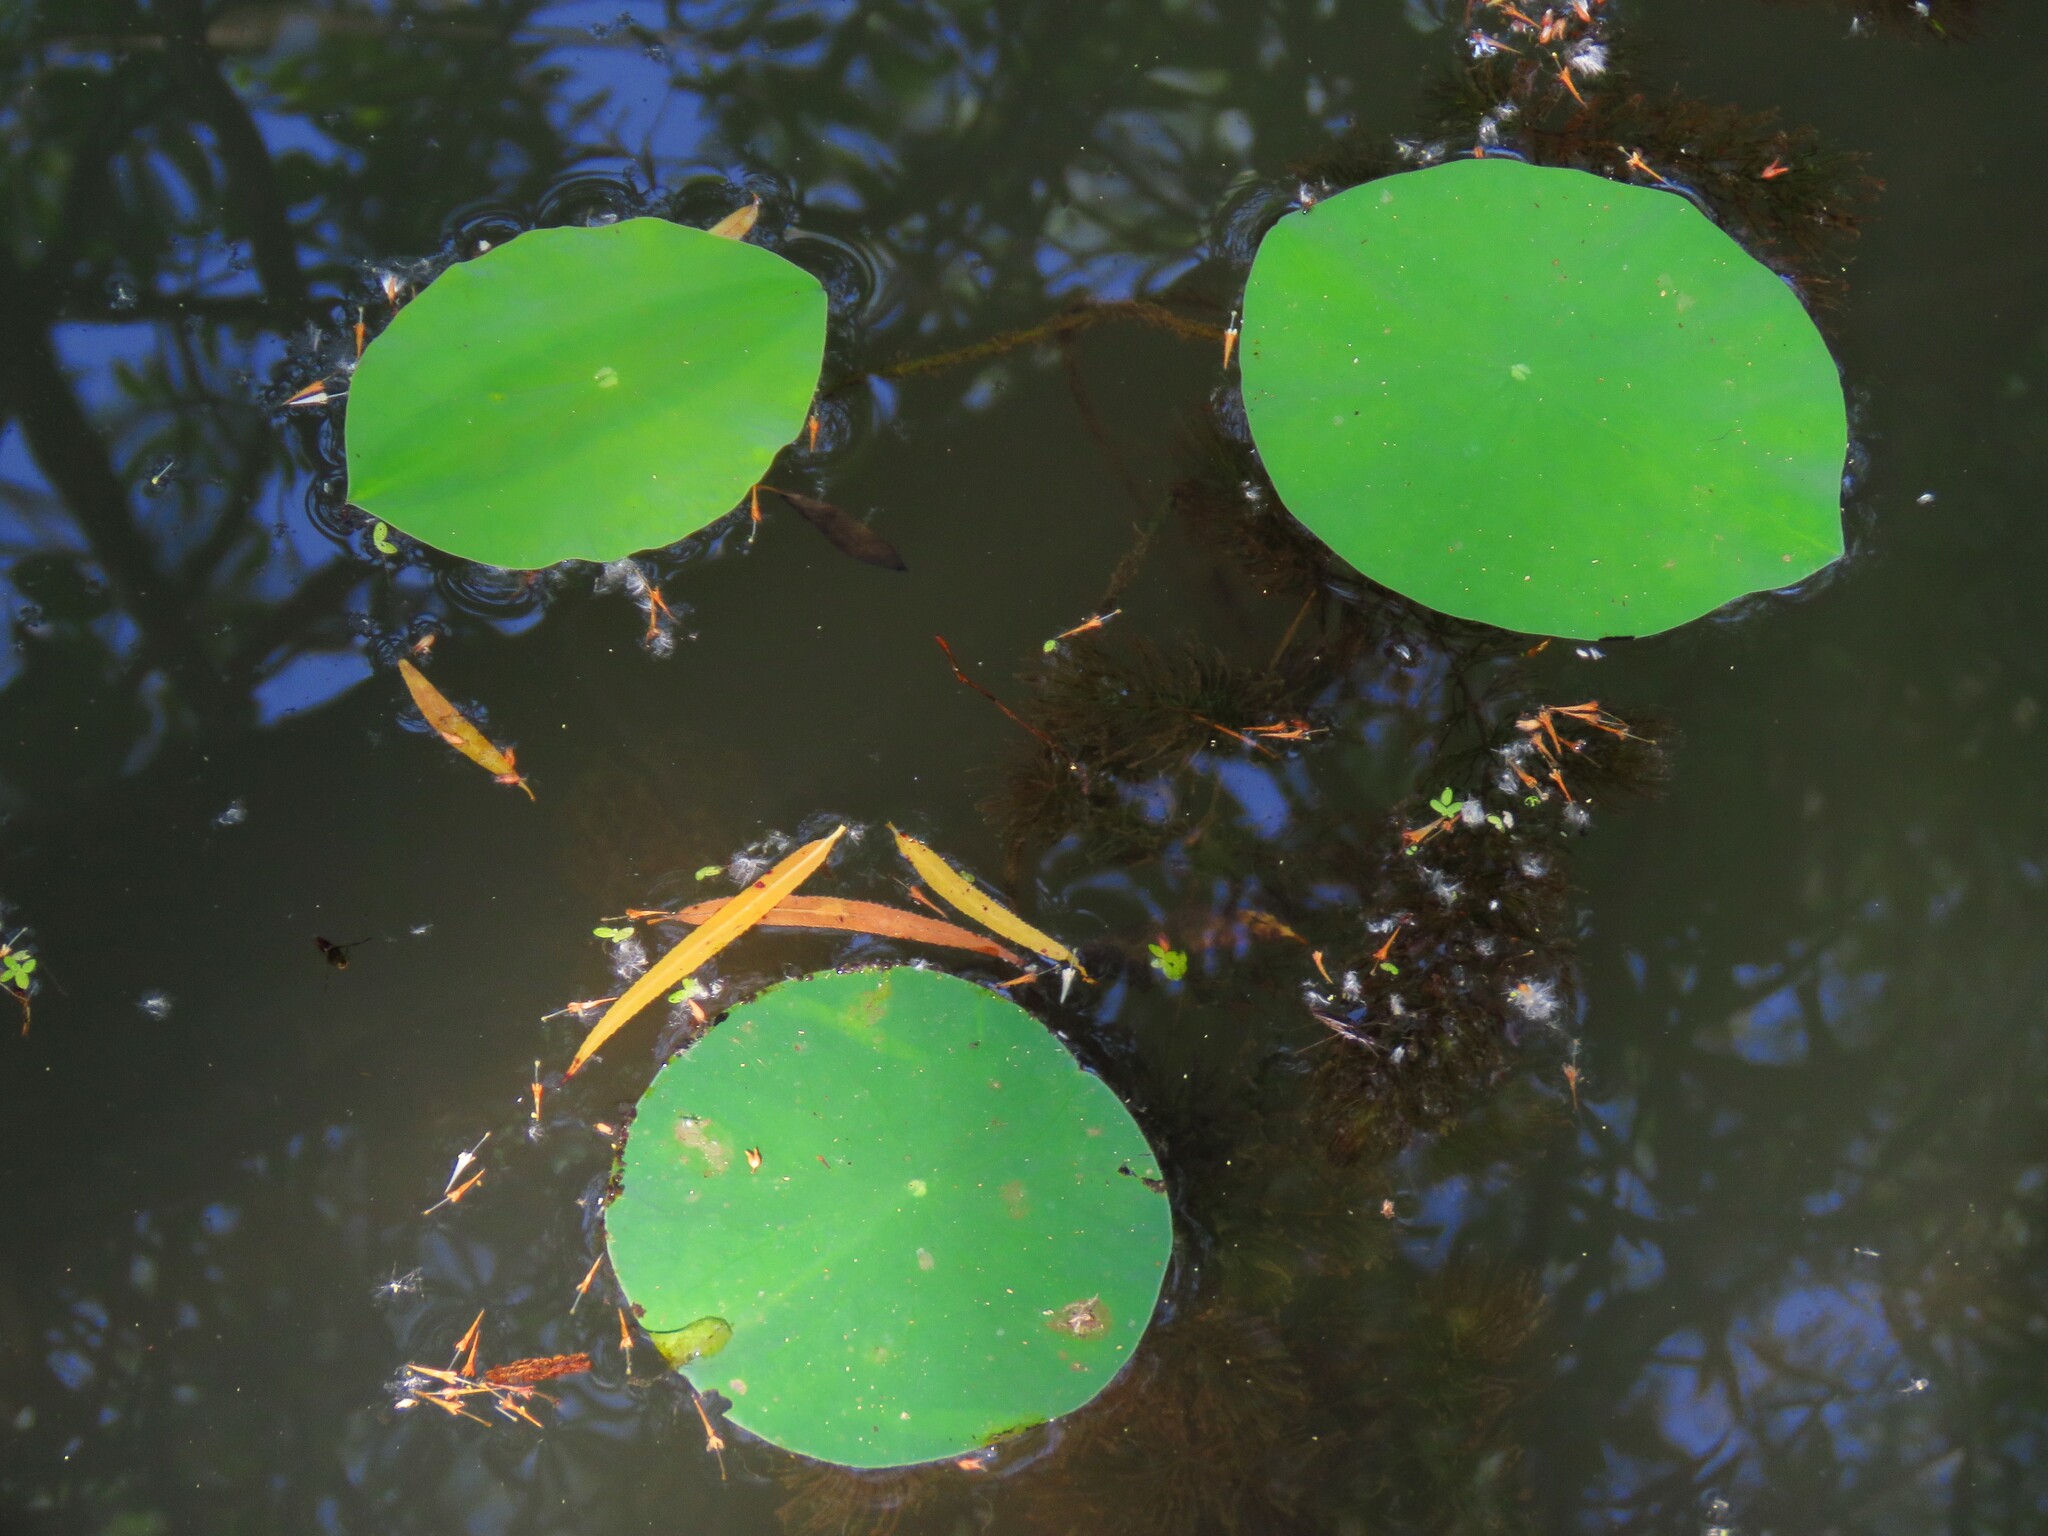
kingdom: Plantae
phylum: Tracheophyta
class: Magnoliopsida
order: Proteales
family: Nelumbonaceae
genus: Nelumbo
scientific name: Nelumbo lutea
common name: American lotus
